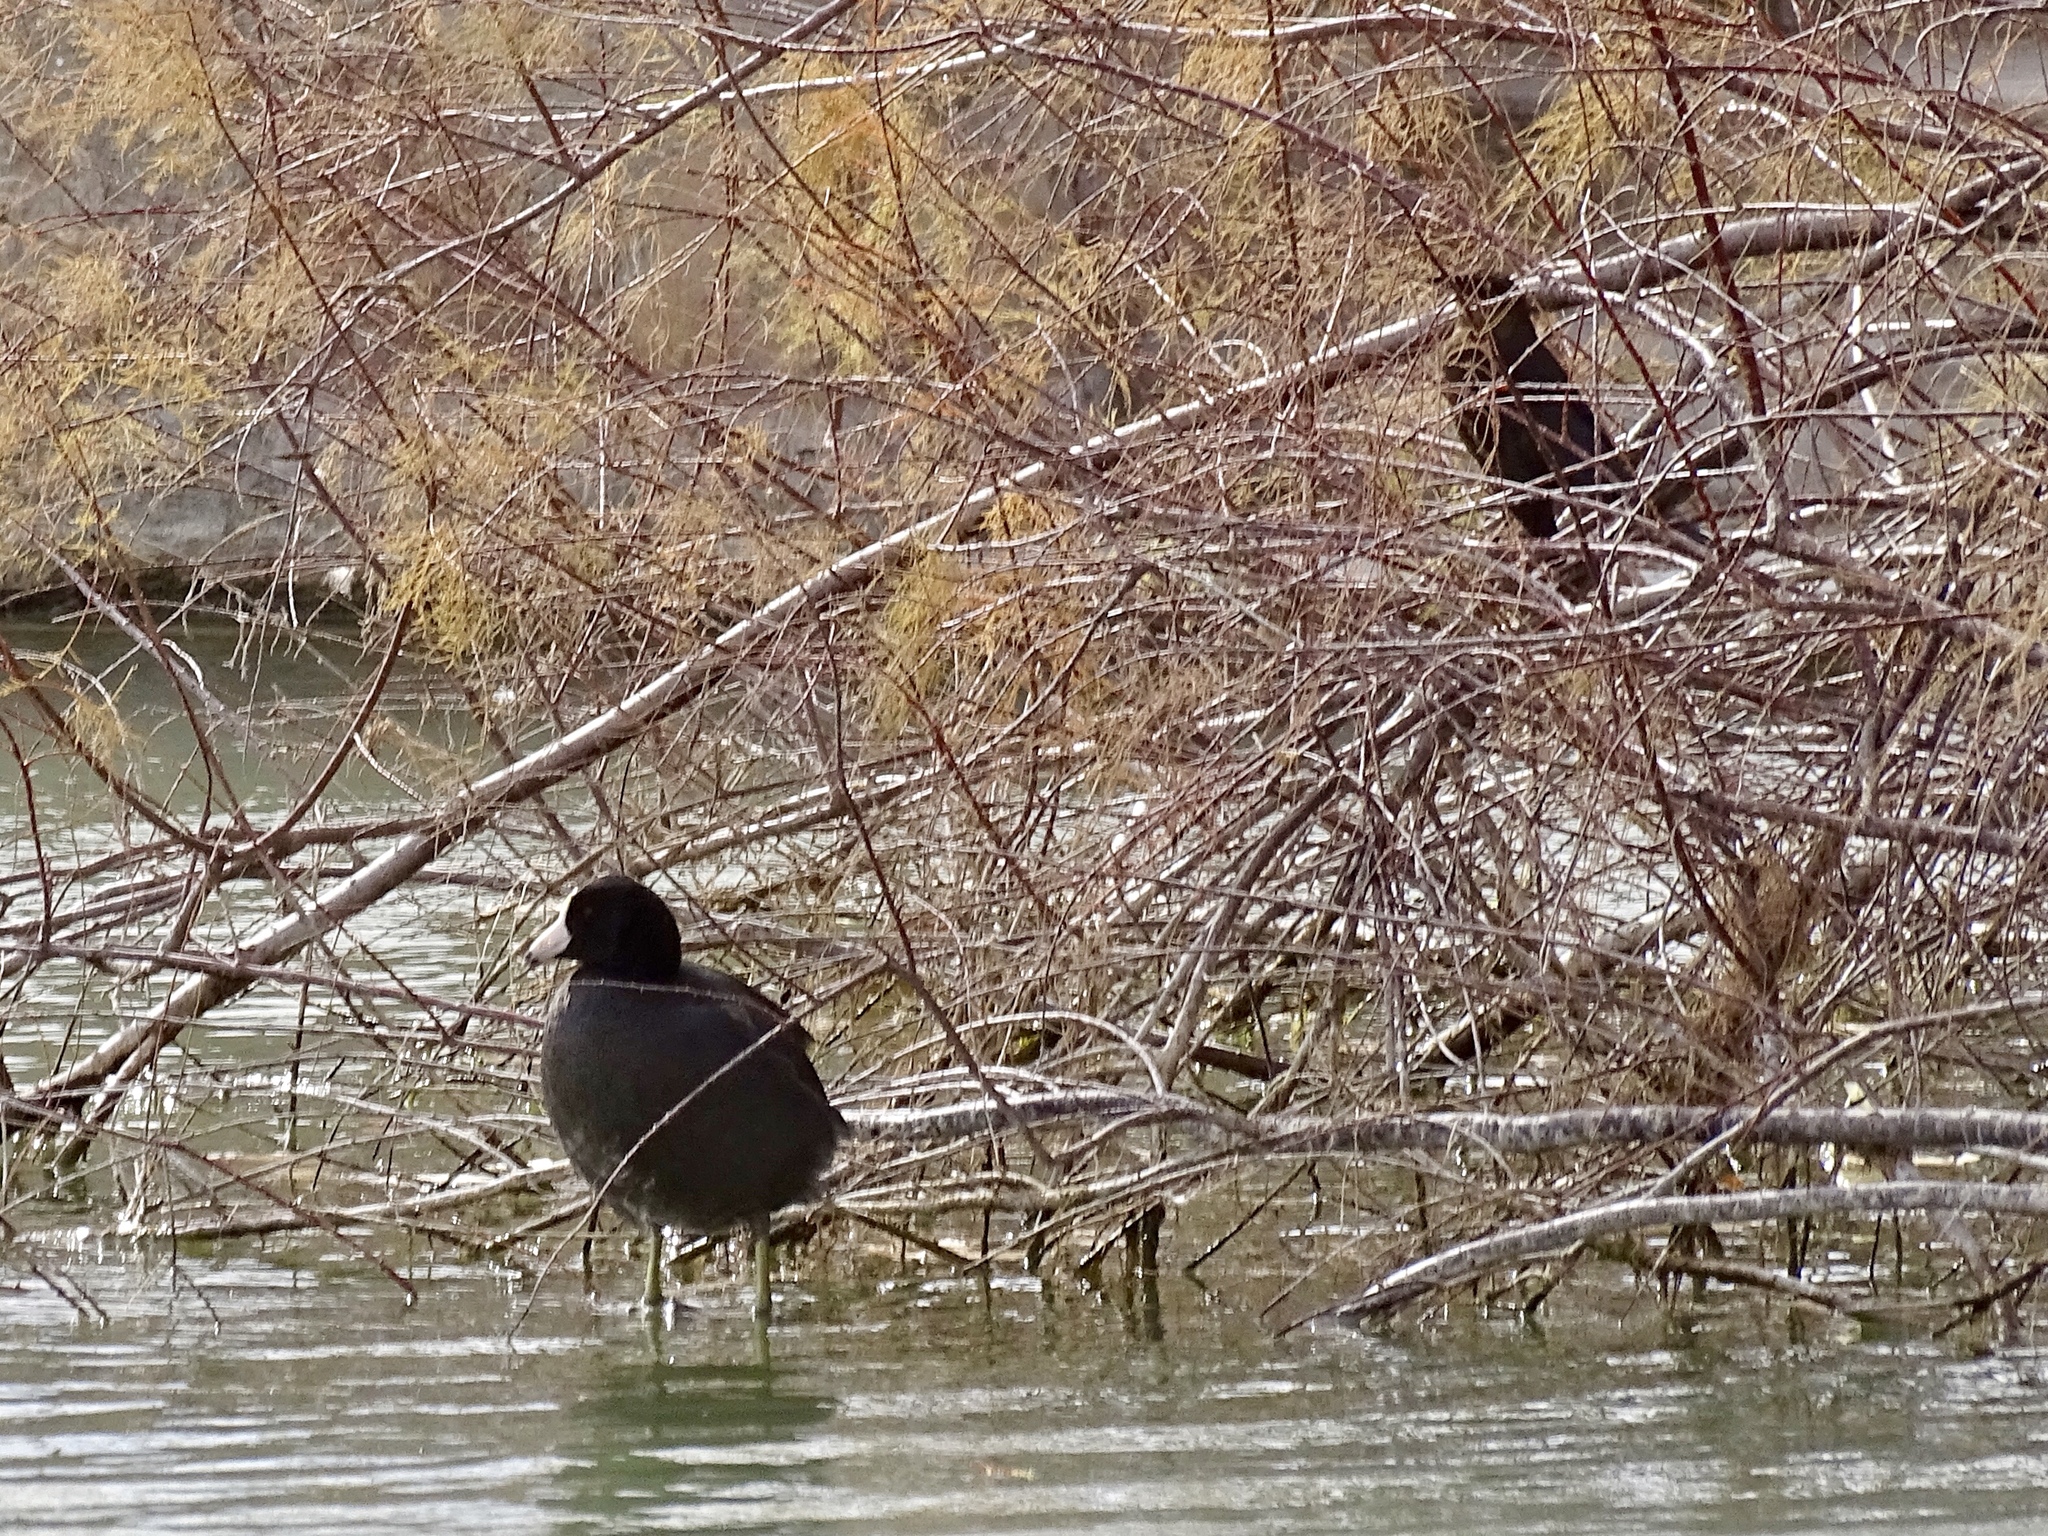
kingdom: Animalia
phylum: Chordata
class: Aves
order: Passeriformes
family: Icteridae
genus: Quiscalus
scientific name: Quiscalus mexicanus
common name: Great-tailed grackle
